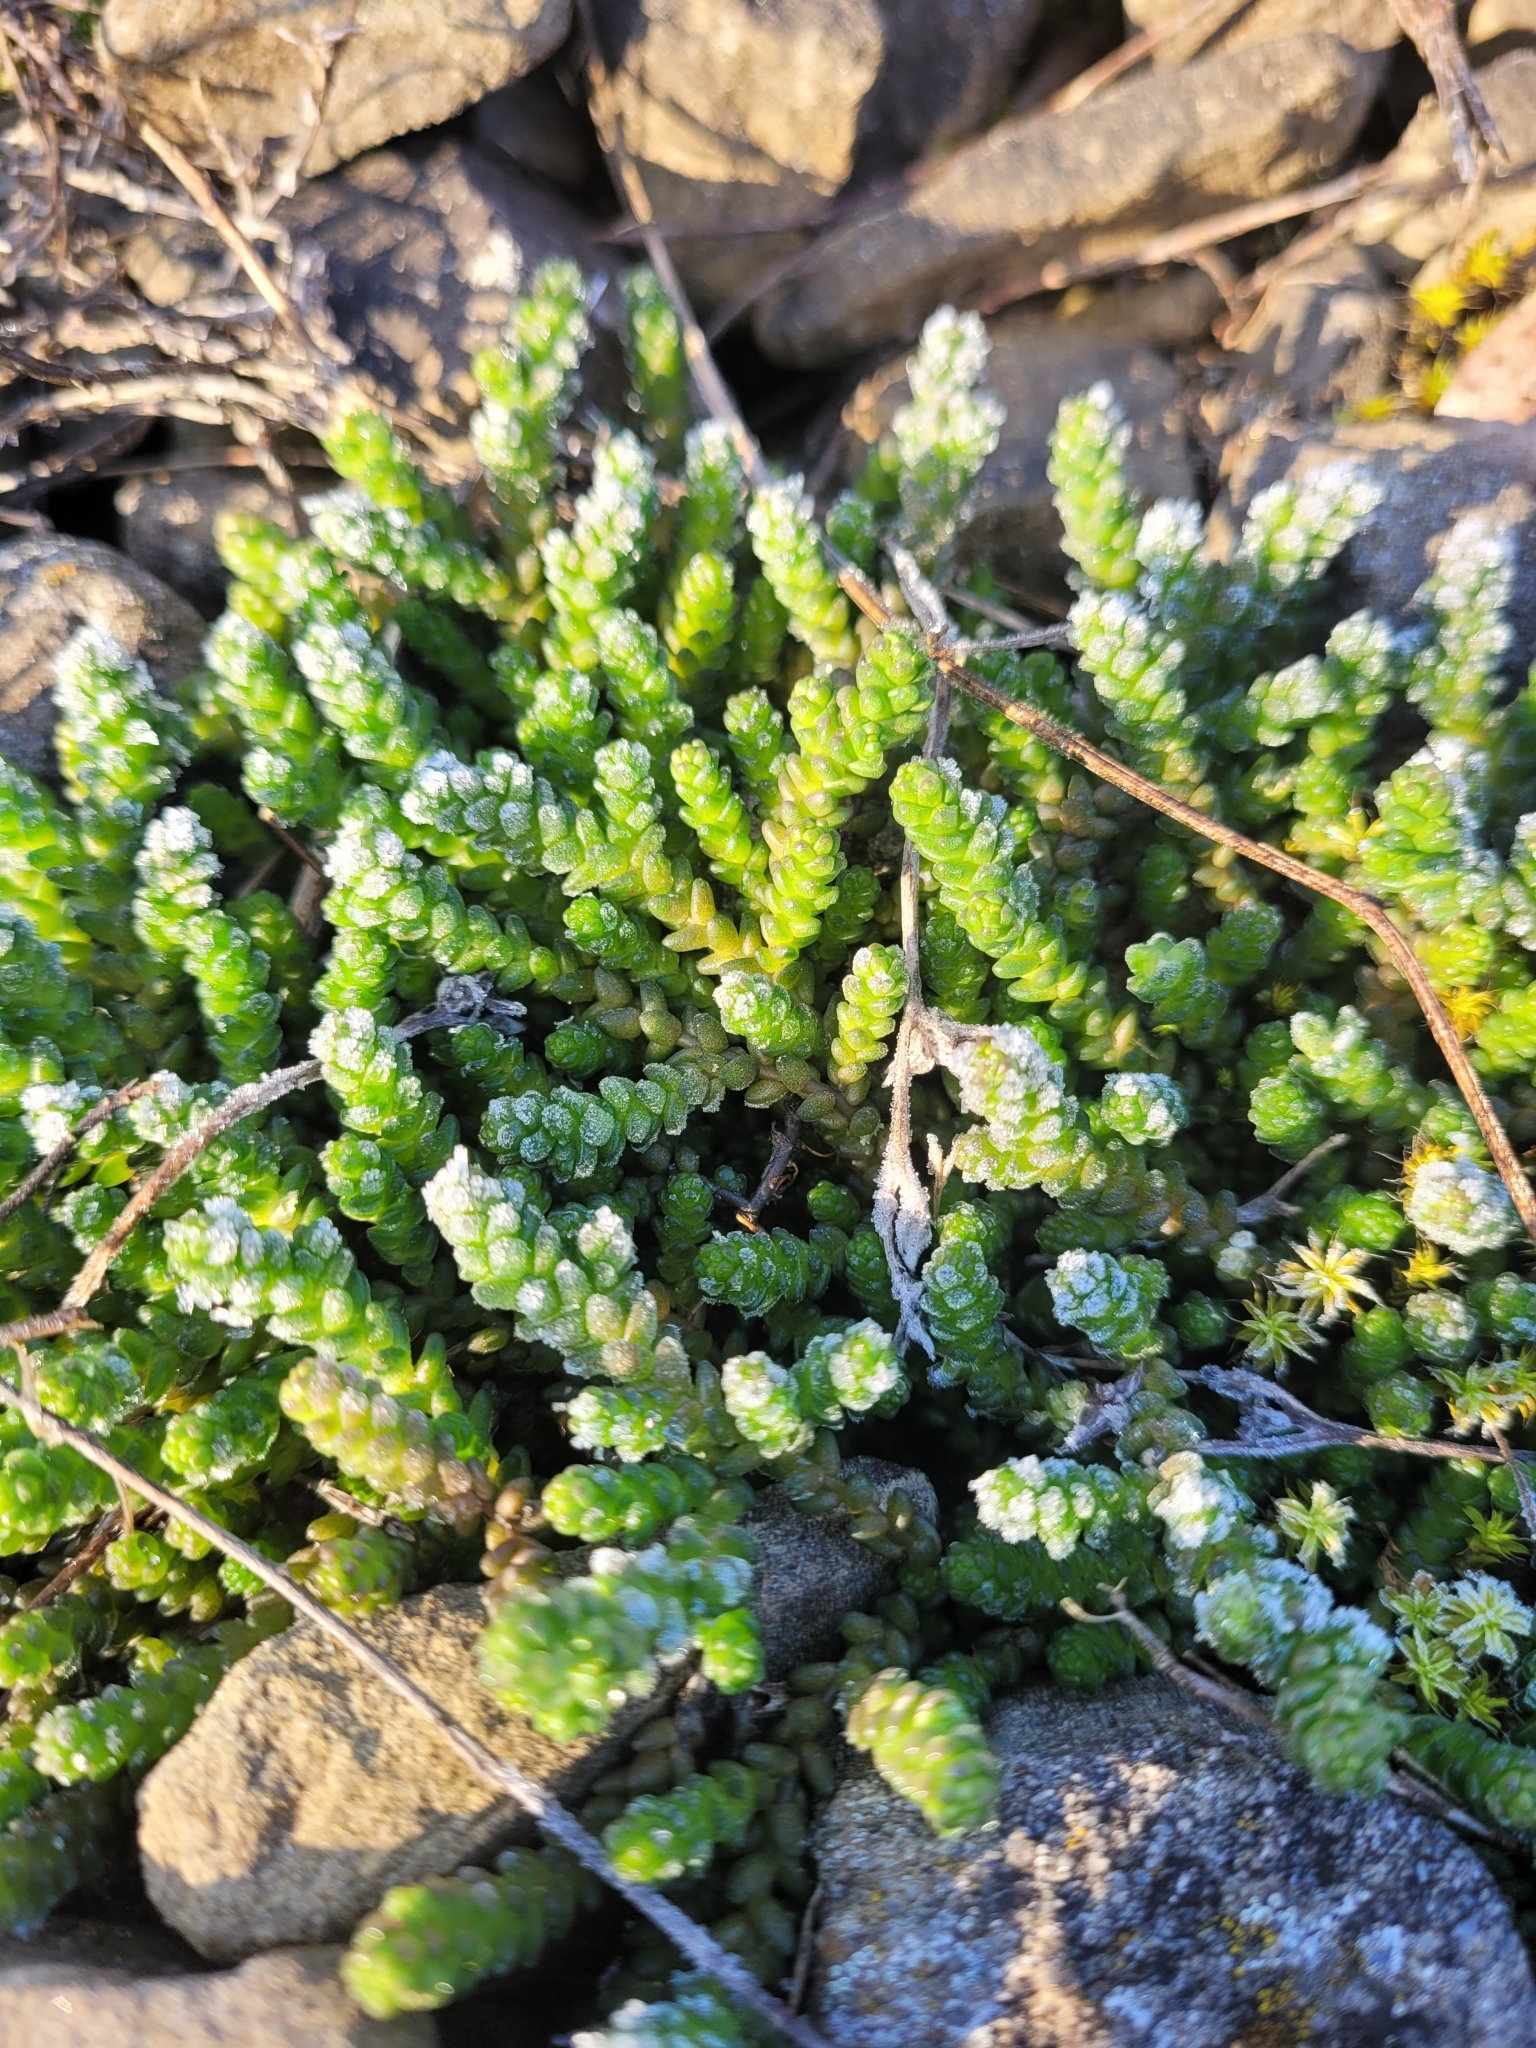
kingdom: Plantae
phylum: Tracheophyta
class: Magnoliopsida
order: Saxifragales
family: Crassulaceae
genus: Sedum
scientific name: Sedum acre
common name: Biting stonecrop
